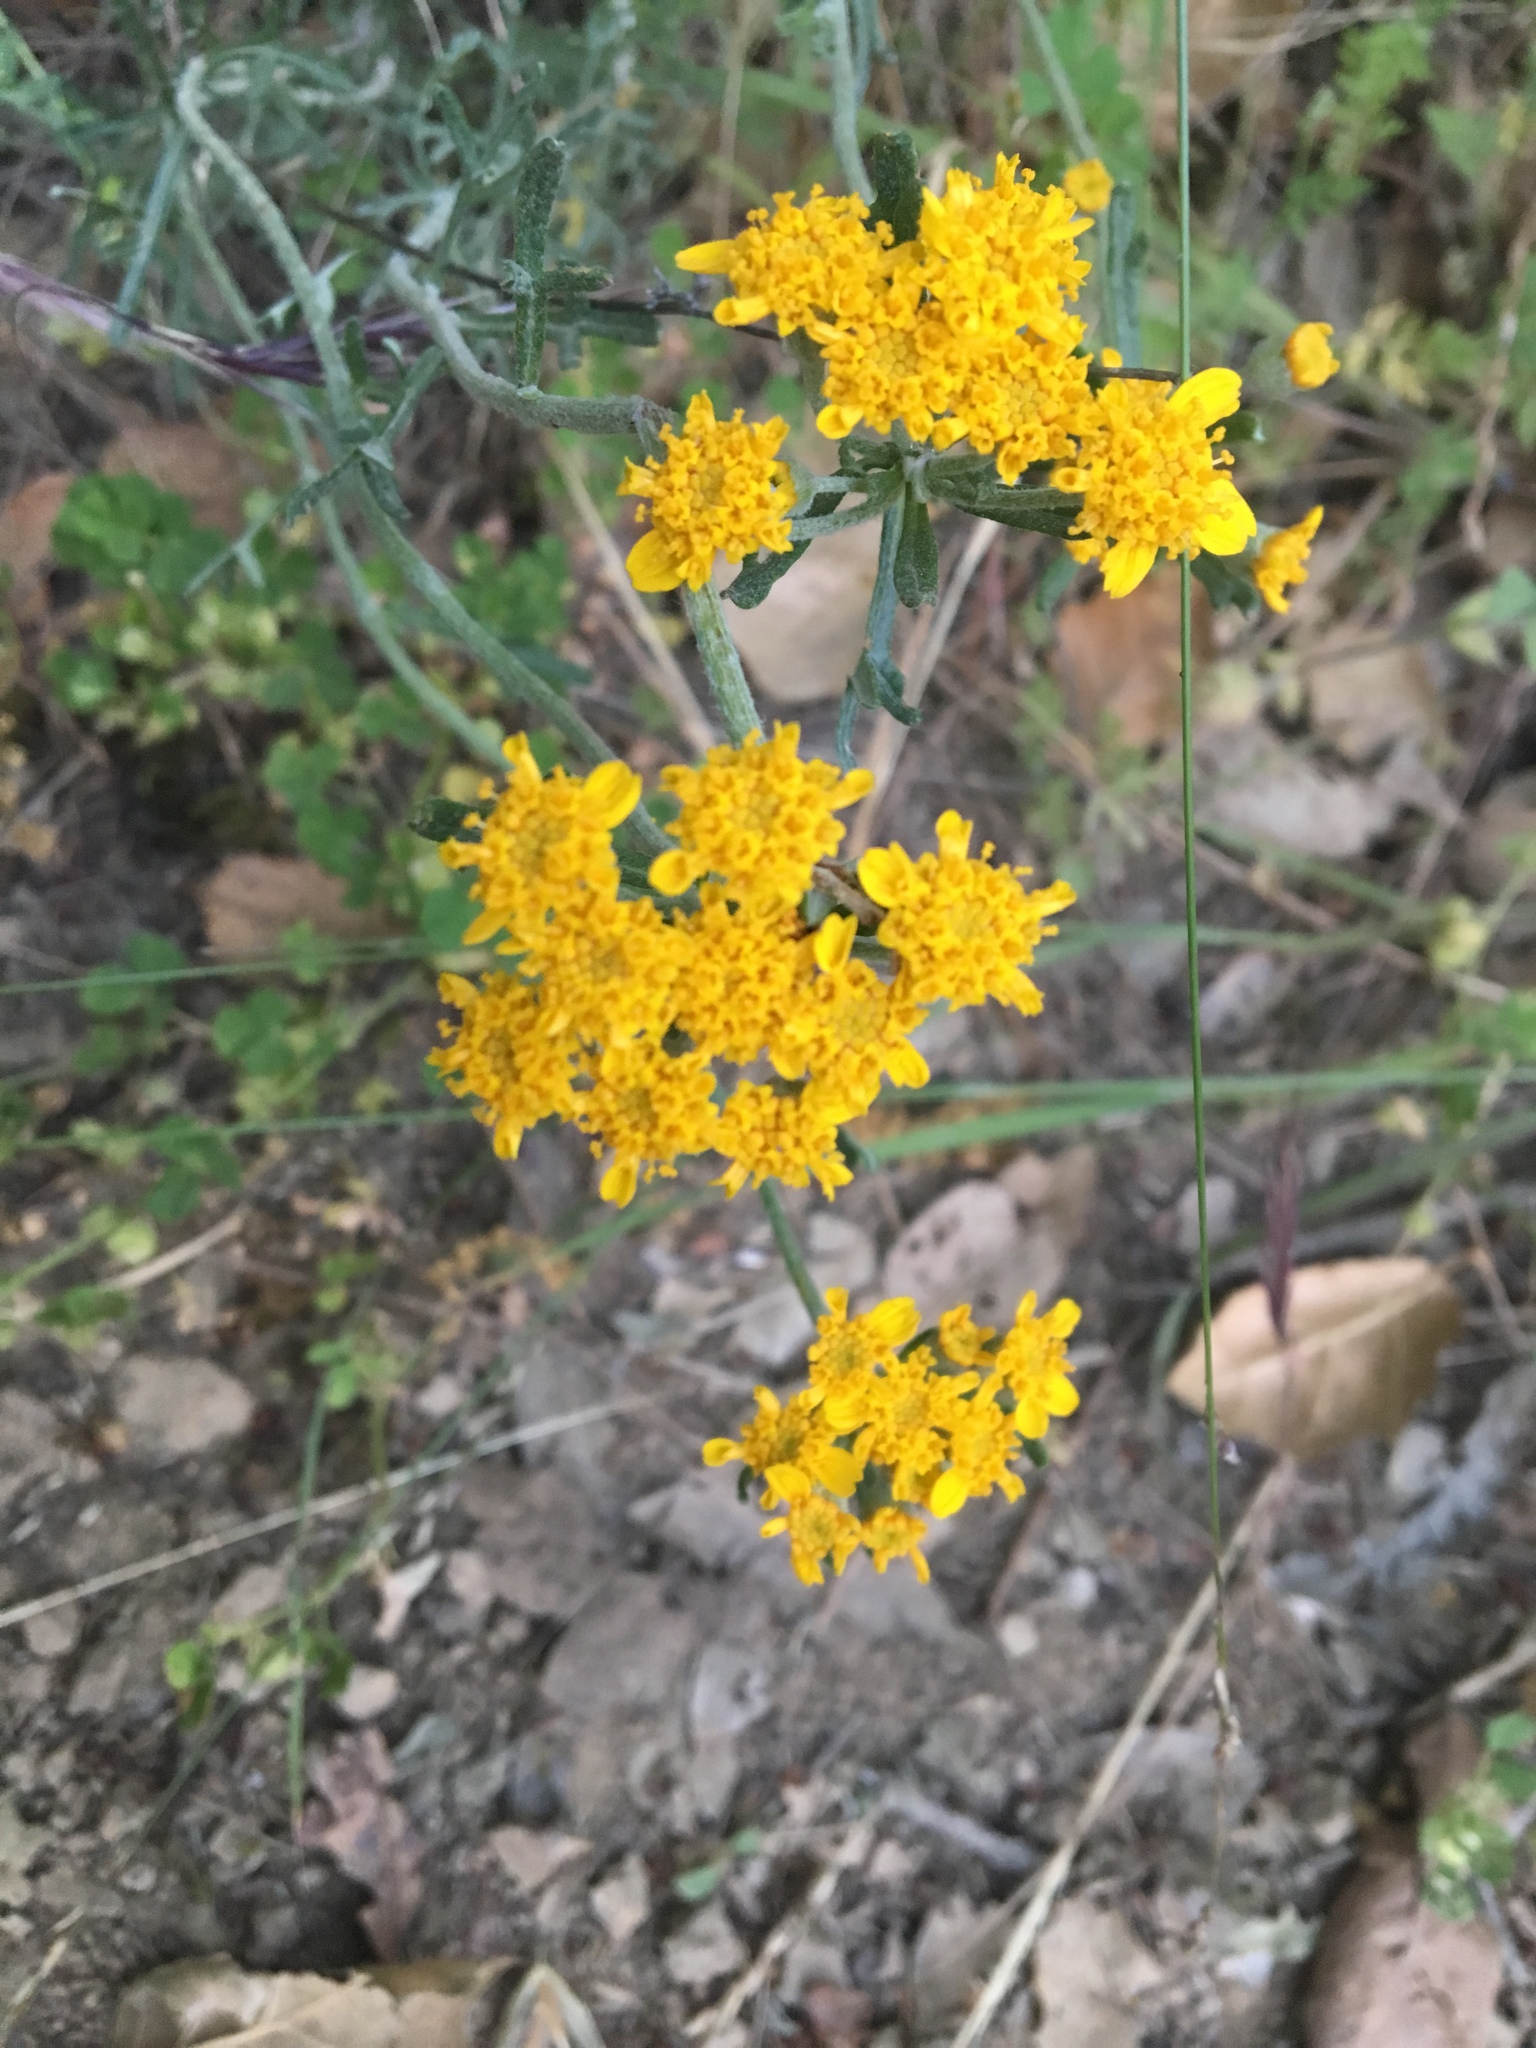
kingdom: Plantae
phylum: Tracheophyta
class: Magnoliopsida
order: Asterales
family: Asteraceae
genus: Eriophyllum
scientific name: Eriophyllum confertiflorum
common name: Golden-yarrow
